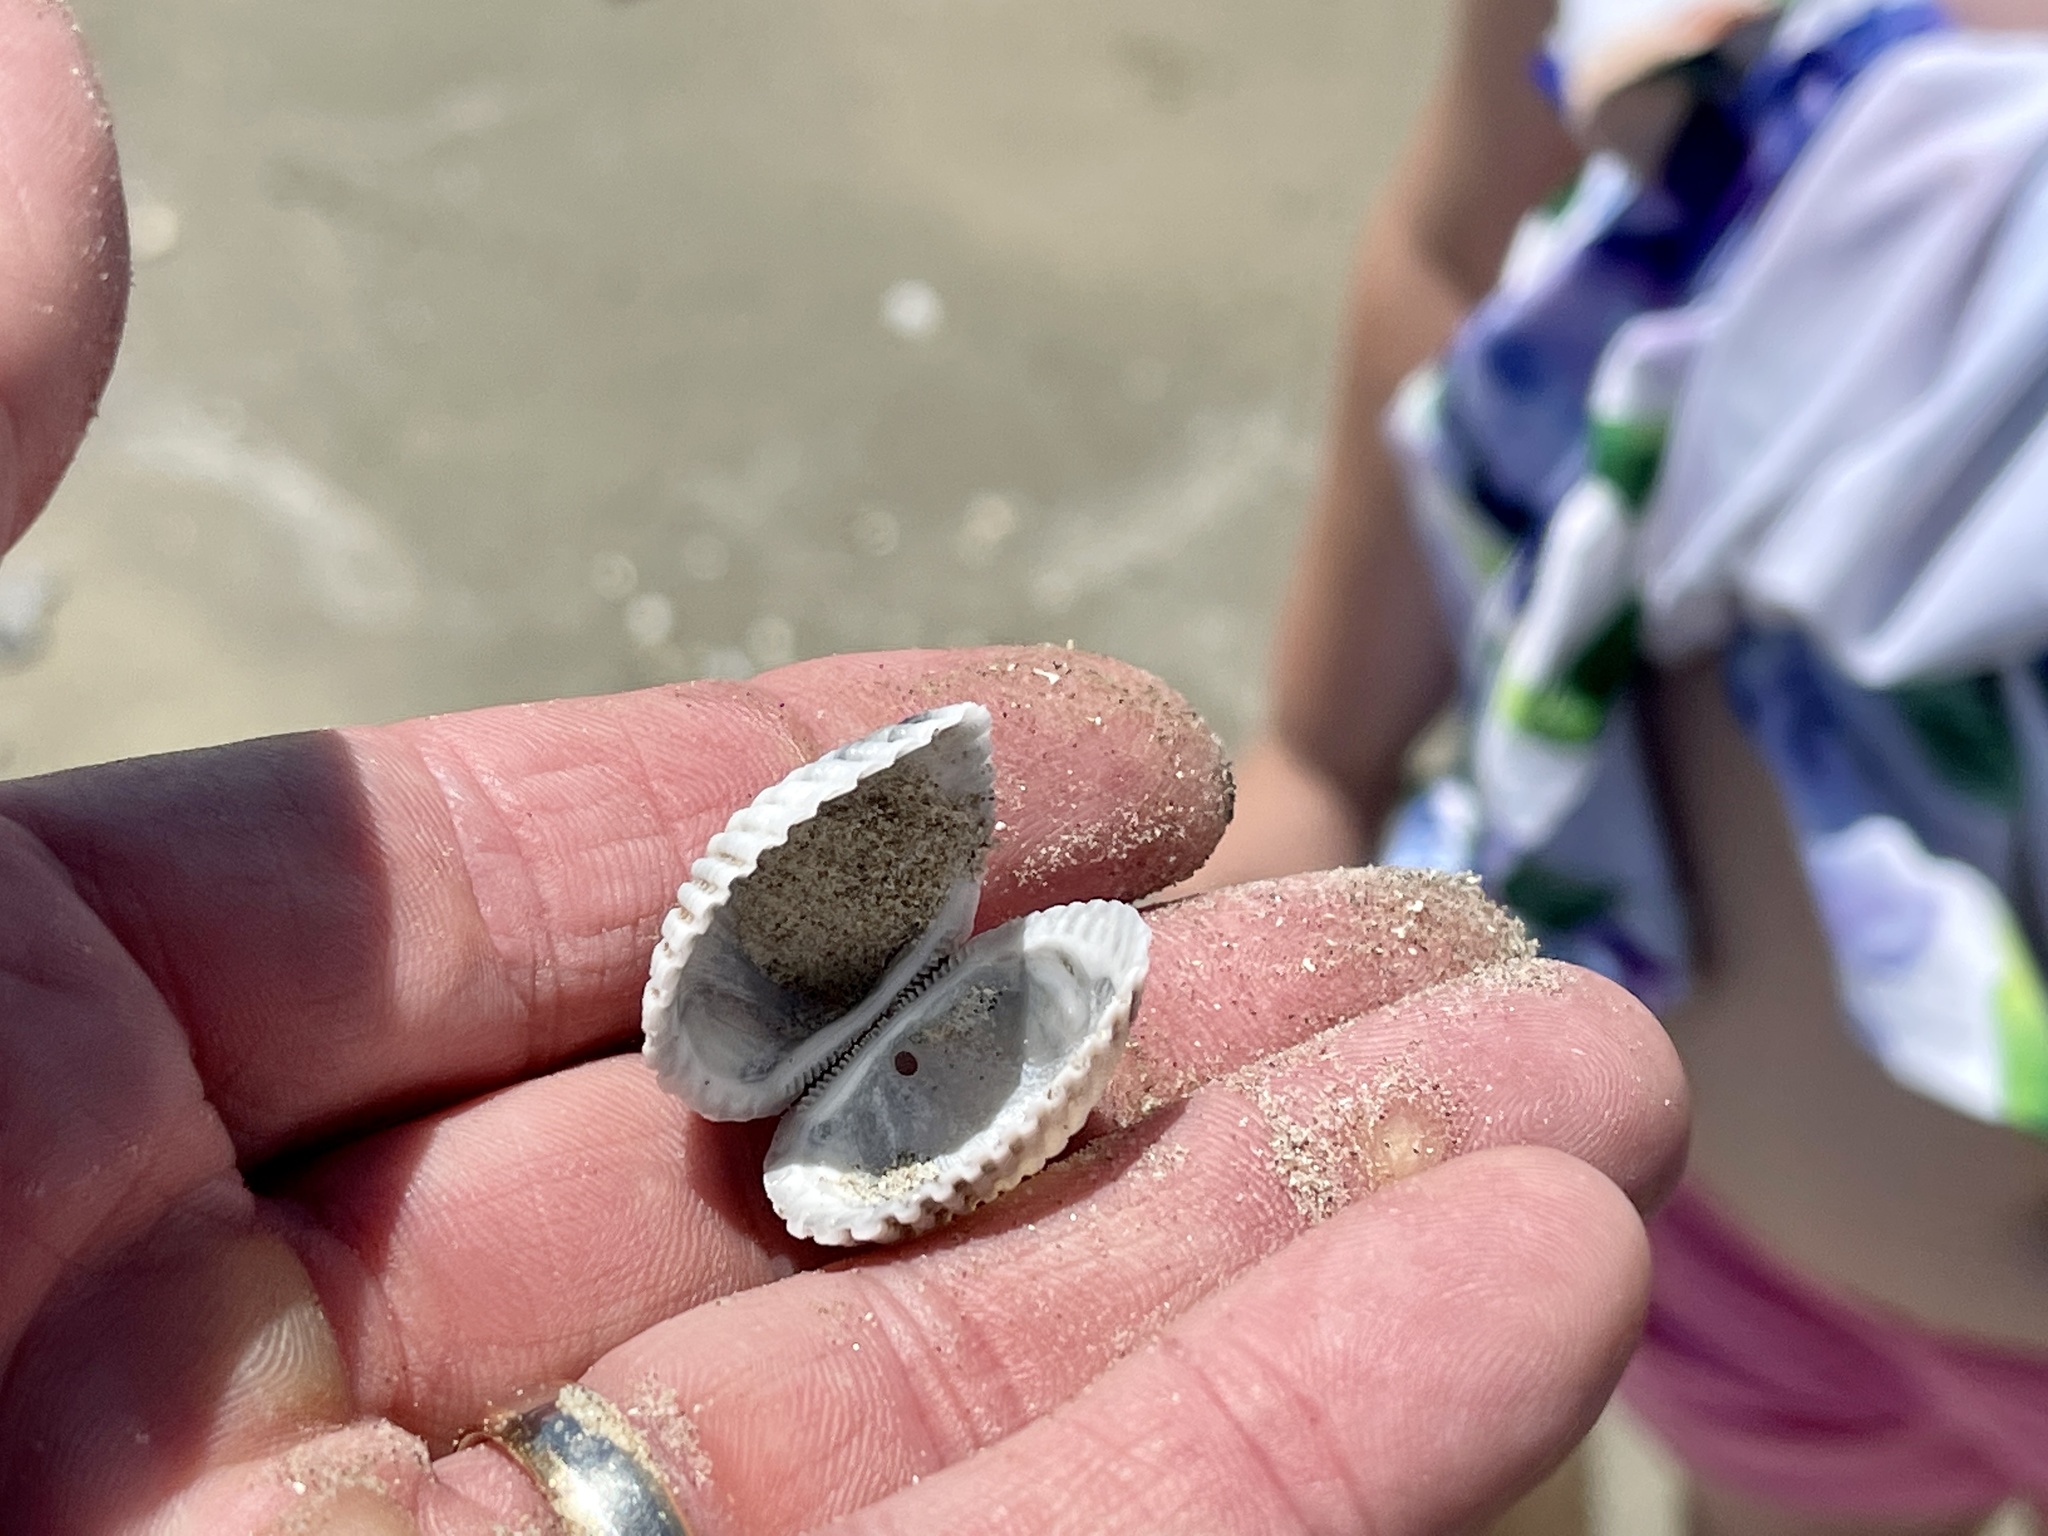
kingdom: Animalia
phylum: Mollusca
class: Bivalvia
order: Arcida
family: Arcidae
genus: Anadara
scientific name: Anadara brasiliana
